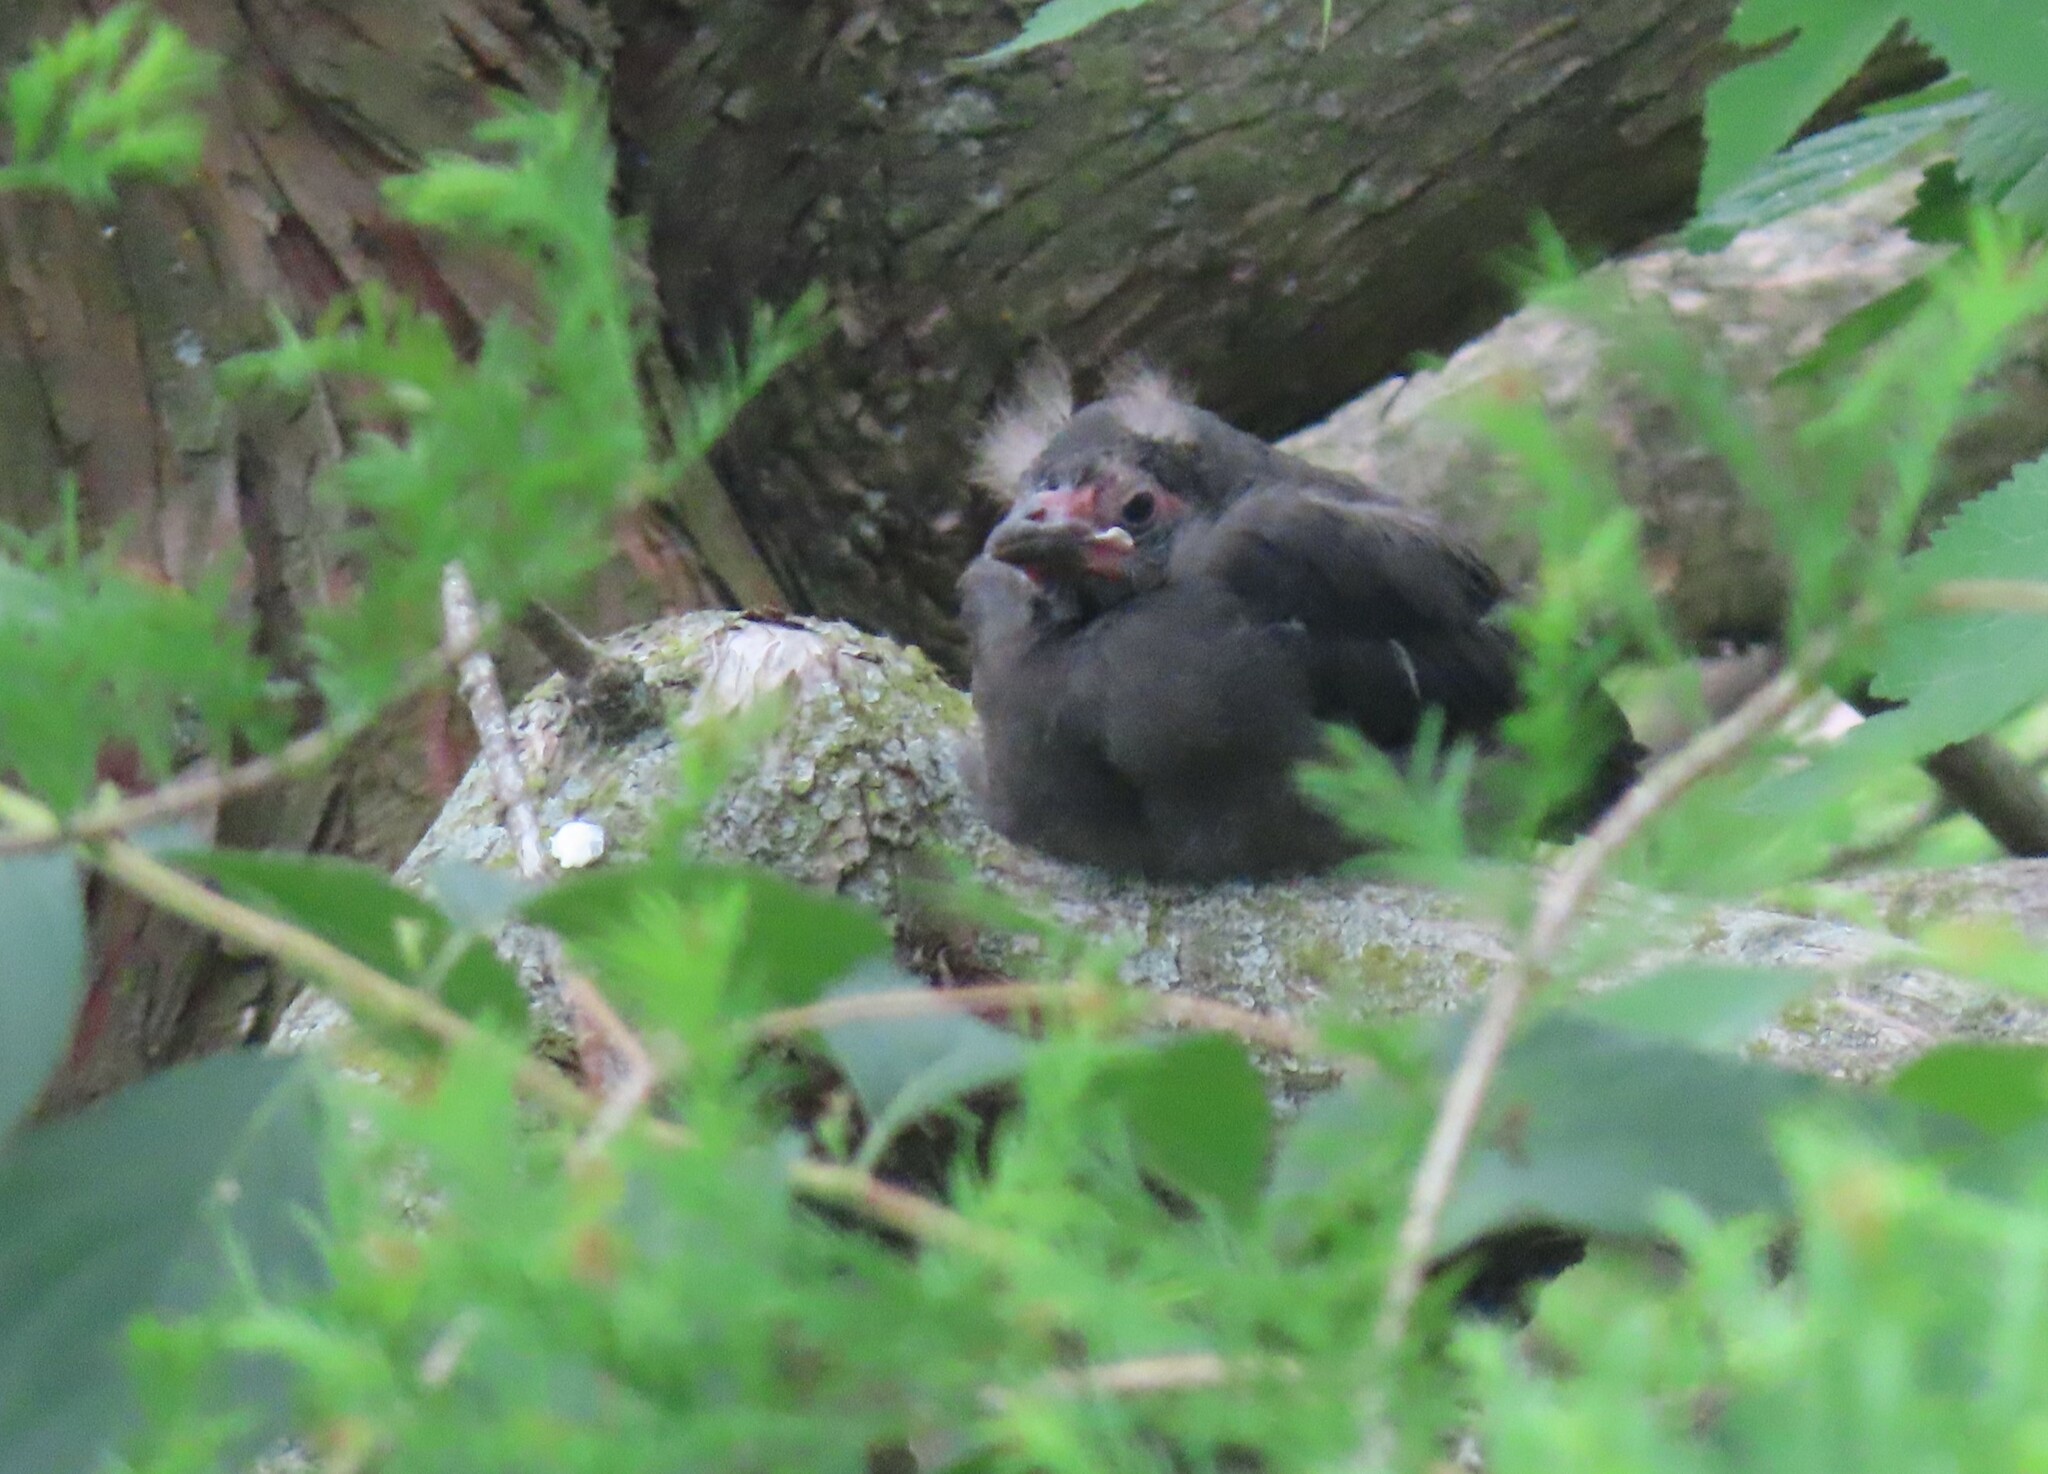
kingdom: Animalia
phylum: Chordata
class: Aves
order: Passeriformes
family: Icteridae
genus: Quiscalus
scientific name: Quiscalus quiscula
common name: Common grackle
